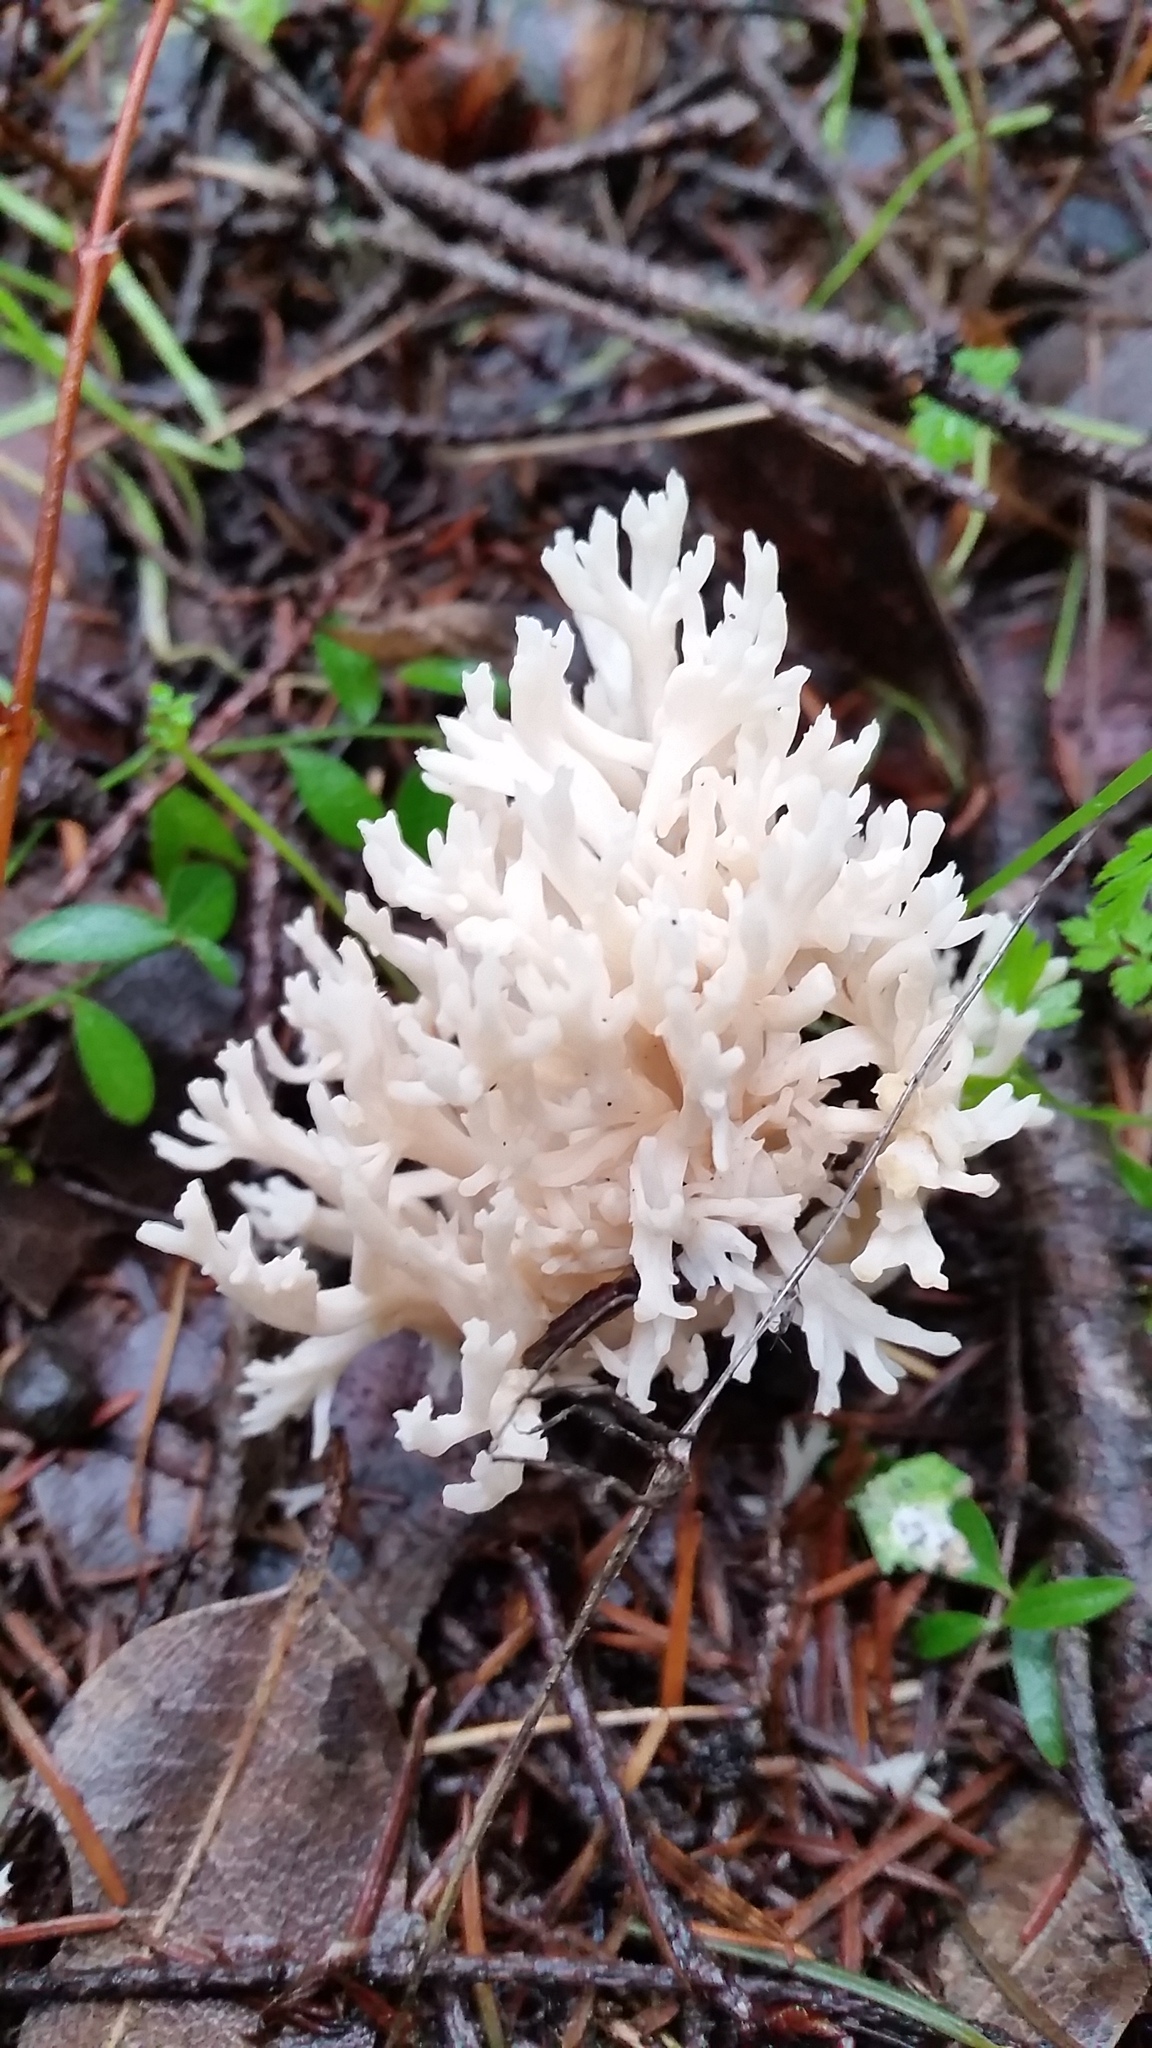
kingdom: Fungi
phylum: Basidiomycota
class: Agaricomycetes
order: Cantharellales
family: Hydnaceae
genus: Clavulina
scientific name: Clavulina coralloides
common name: Crested coral
